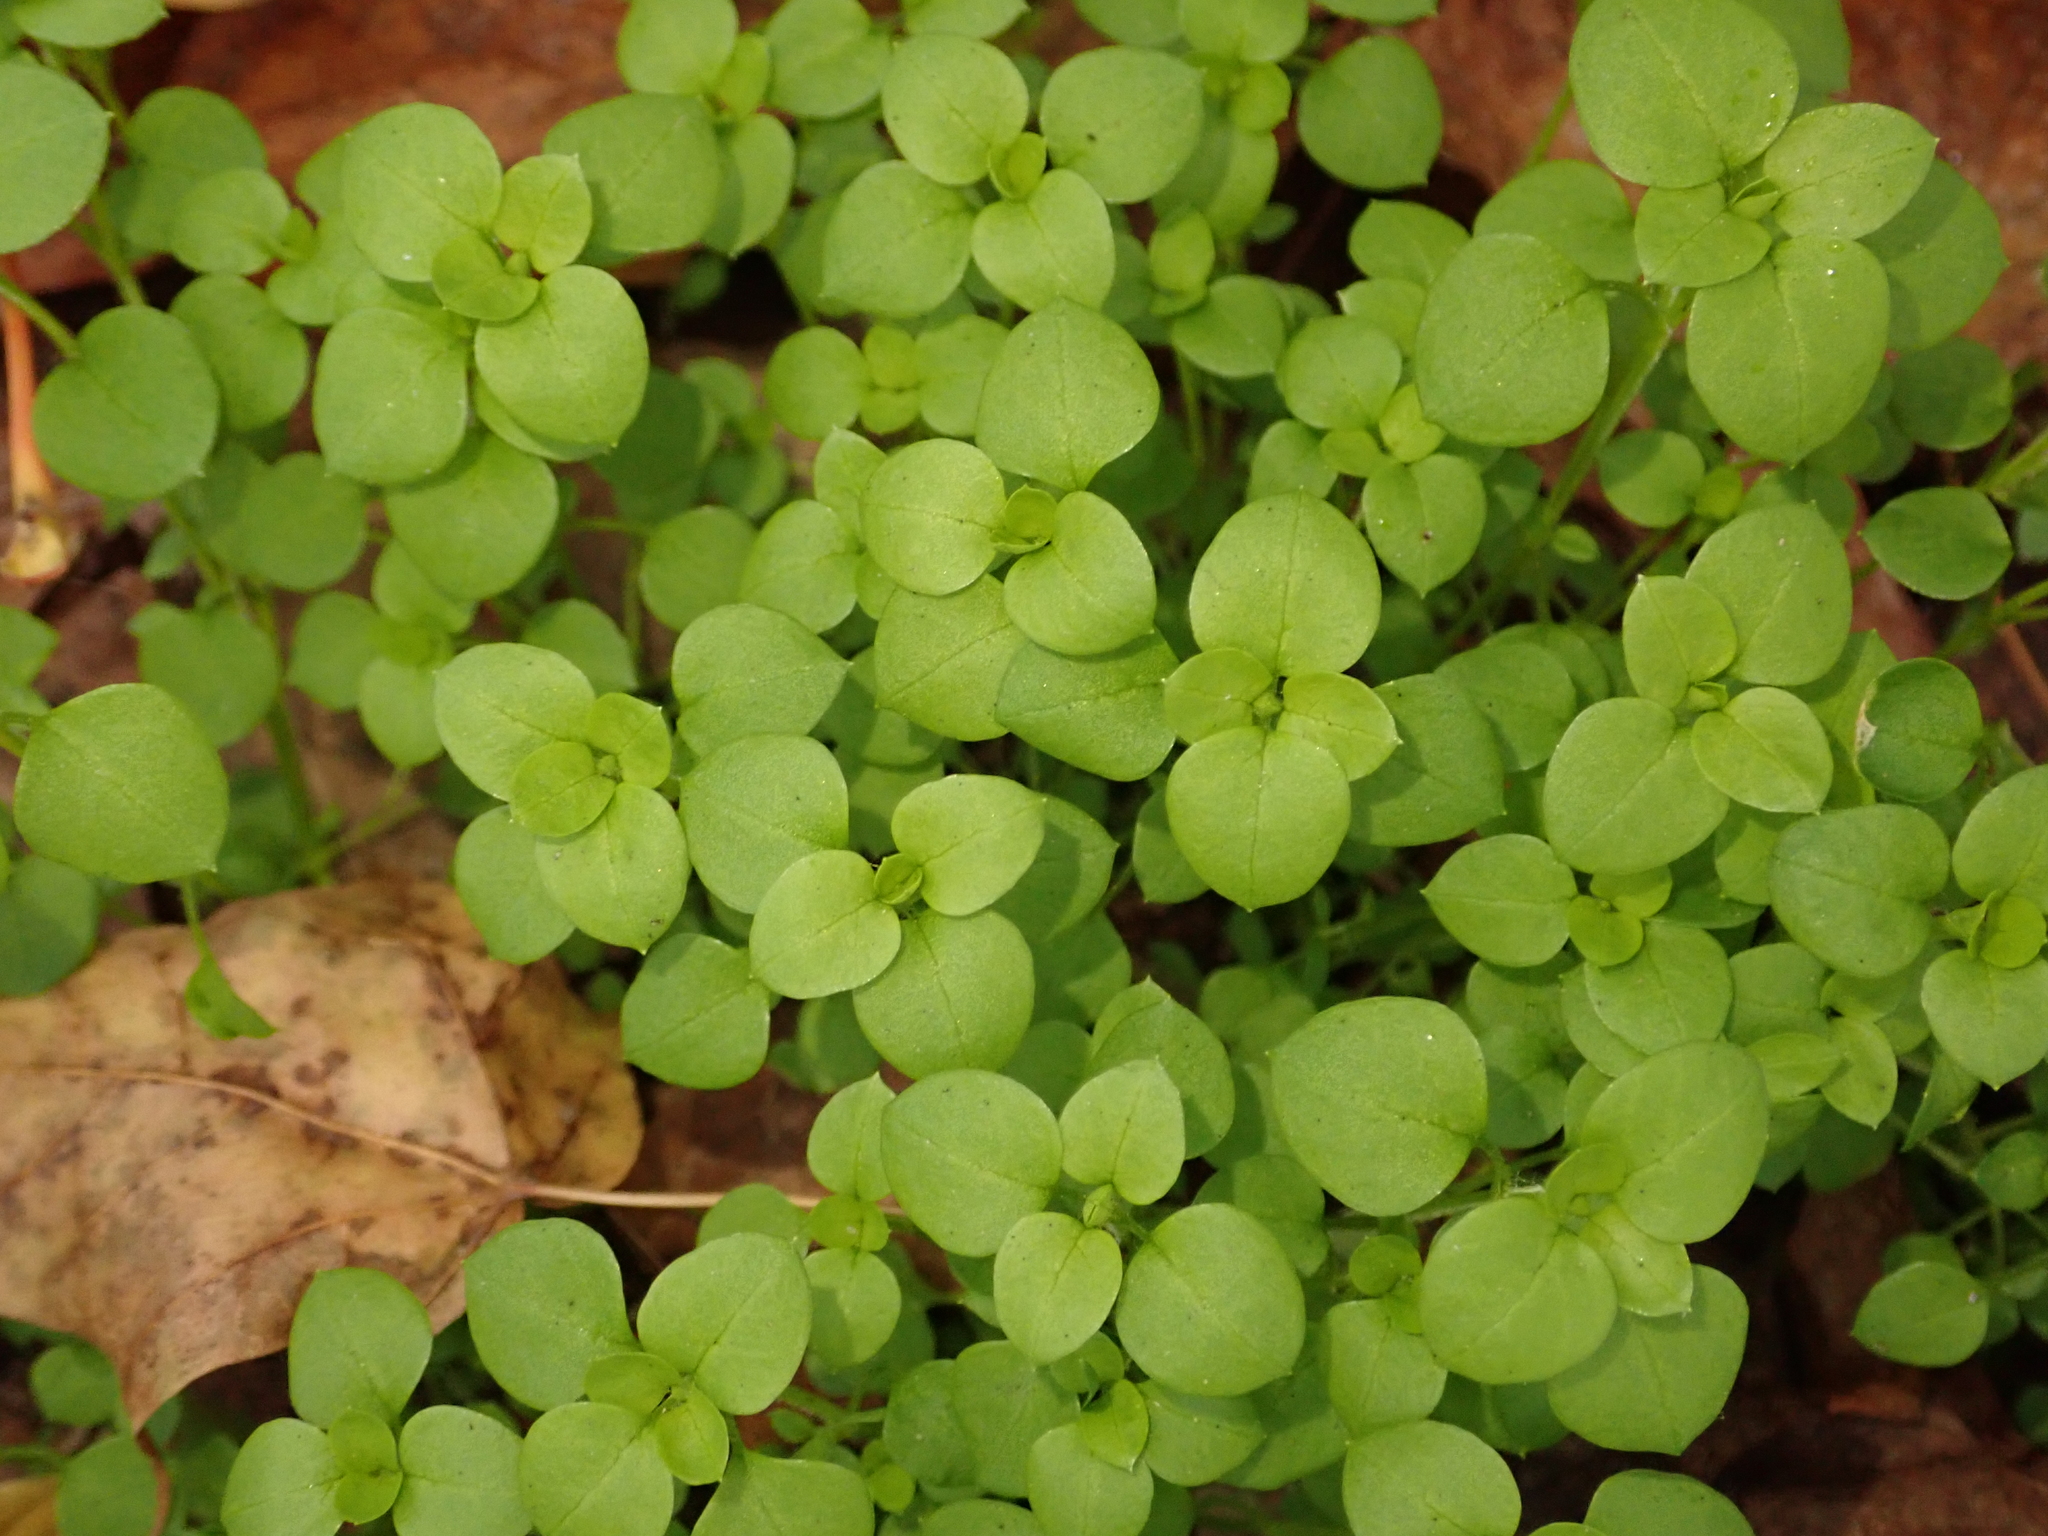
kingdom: Plantae
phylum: Tracheophyta
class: Magnoliopsida
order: Caryophyllales
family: Caryophyllaceae
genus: Stellaria
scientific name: Stellaria media
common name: Common chickweed
